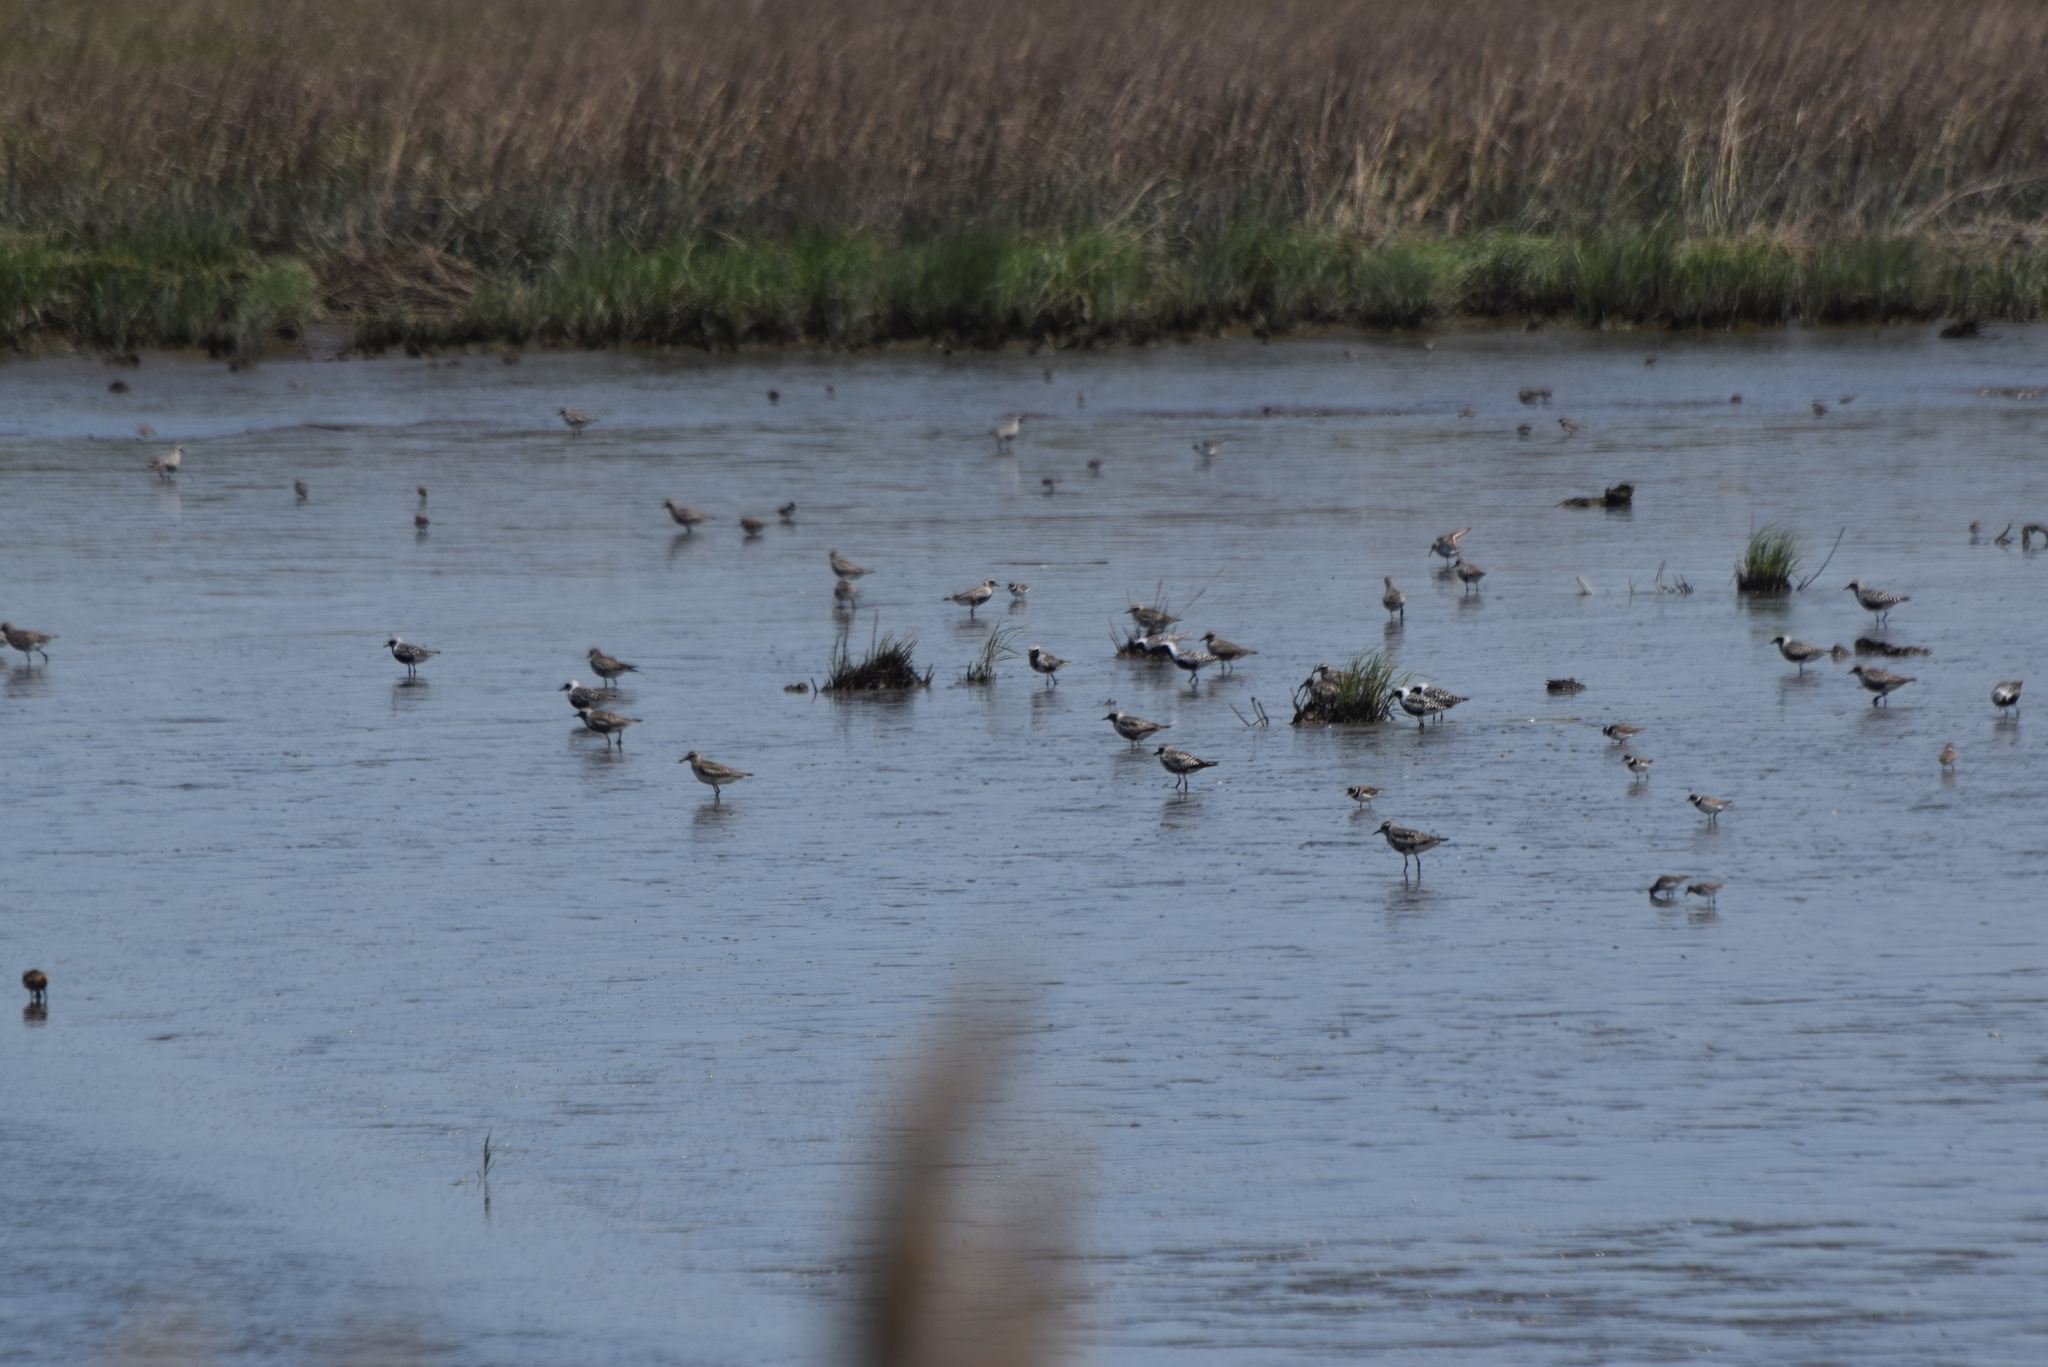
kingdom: Animalia
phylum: Chordata
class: Aves
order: Charadriiformes
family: Charadriidae
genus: Pluvialis
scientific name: Pluvialis squatarola
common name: Grey plover
